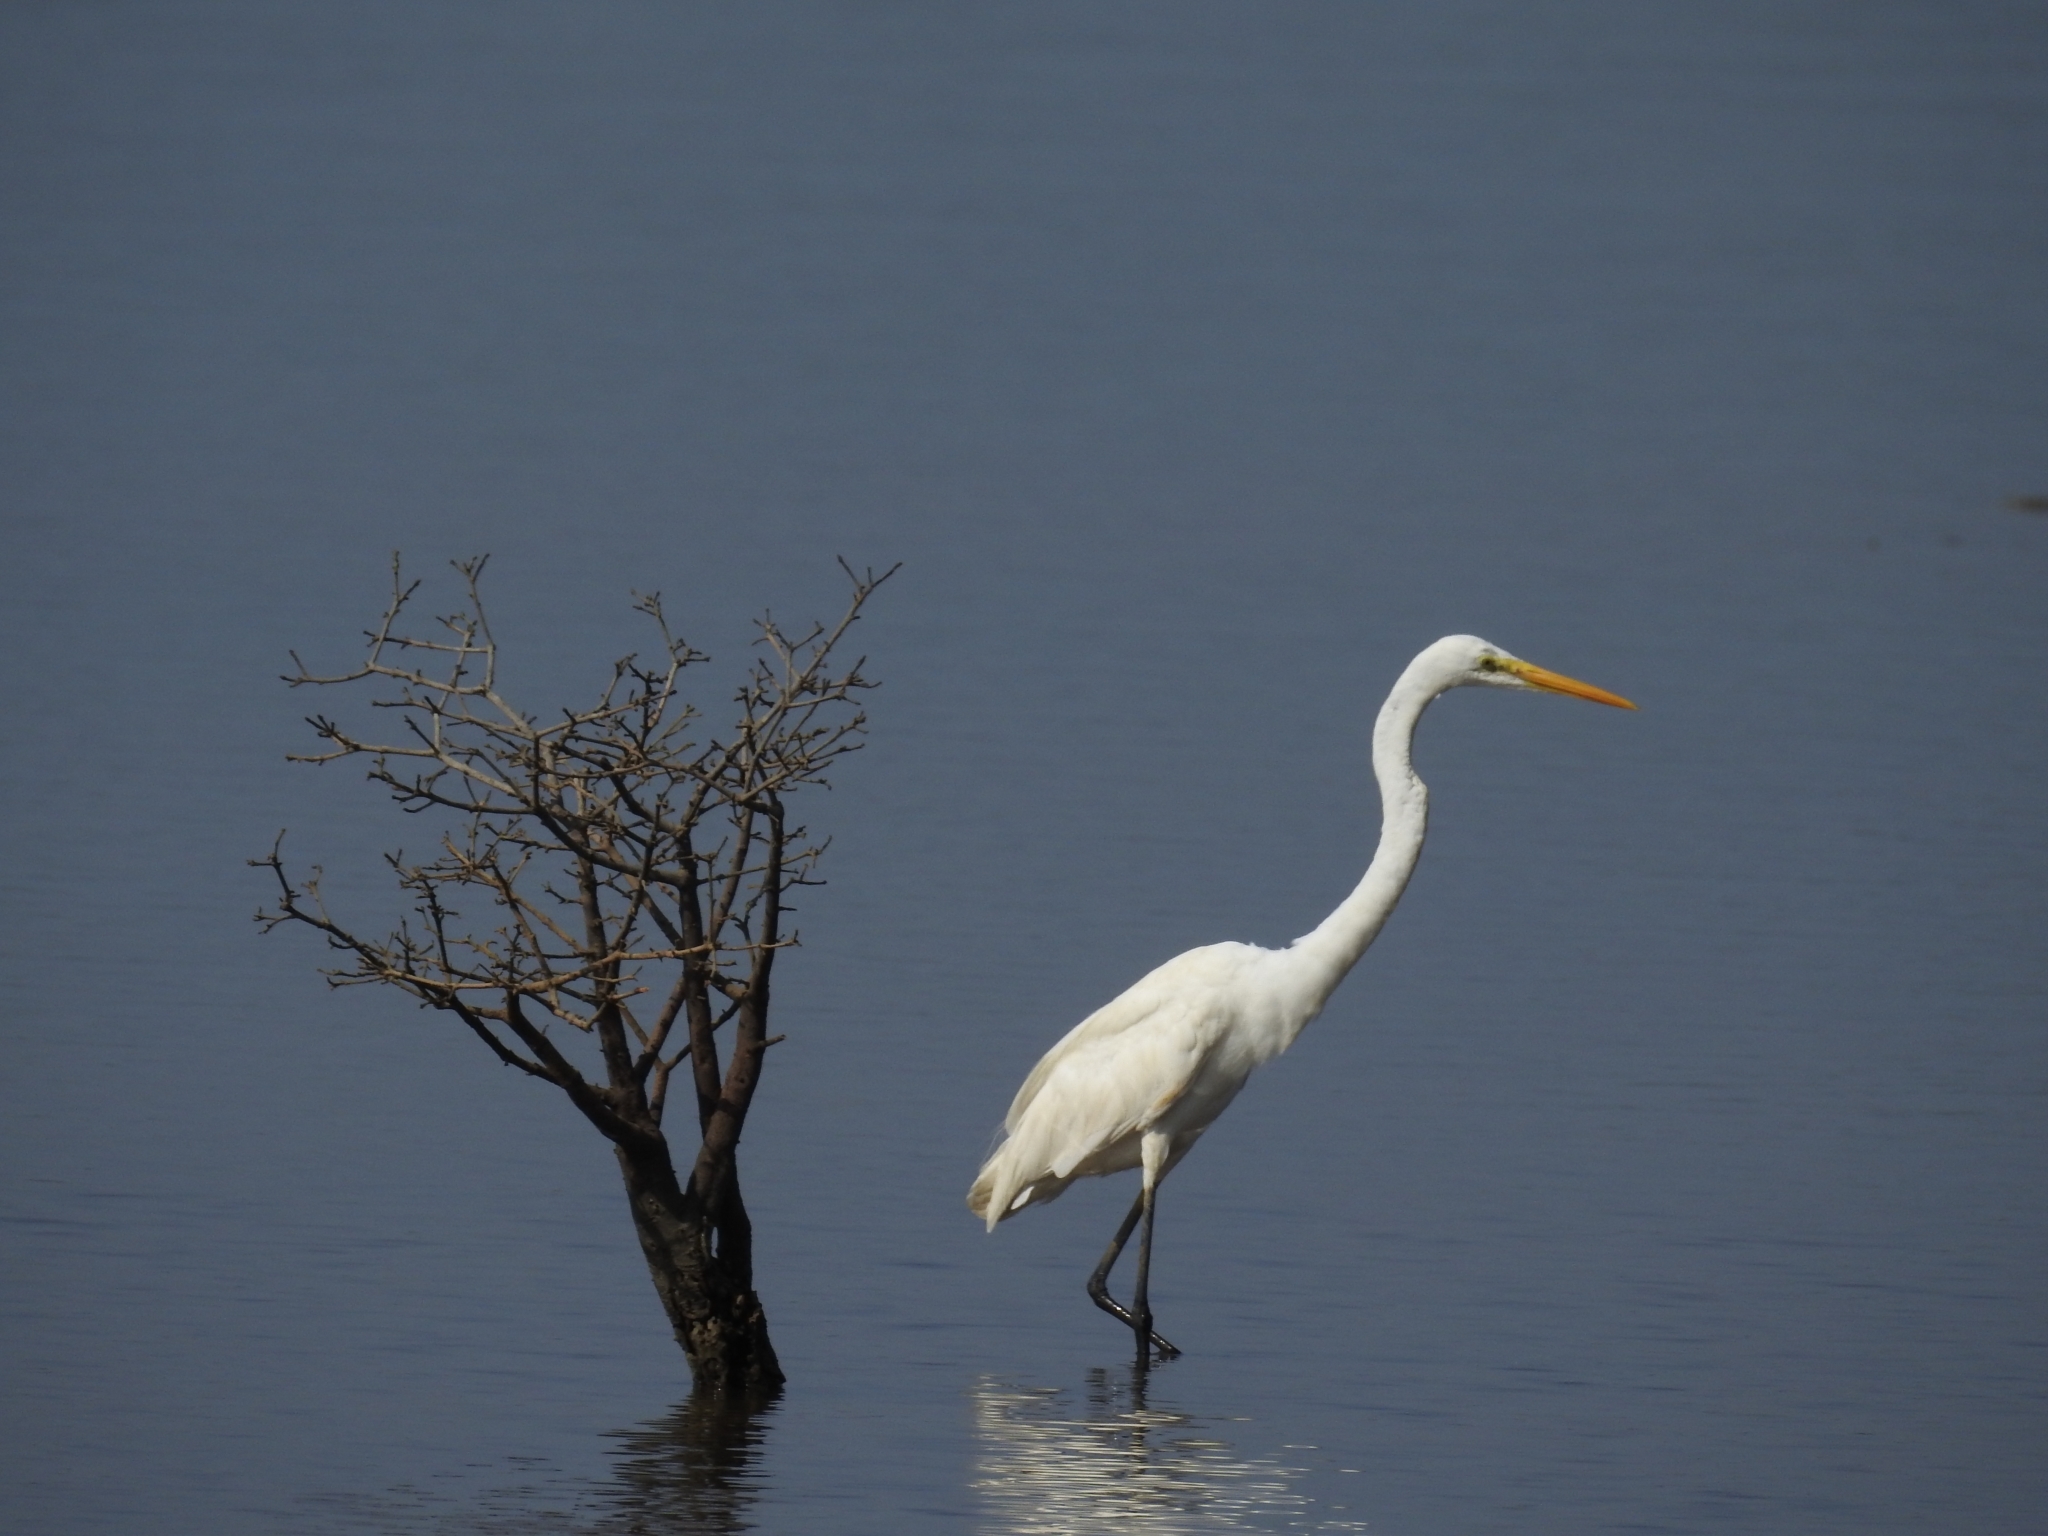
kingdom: Animalia
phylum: Chordata
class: Aves
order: Pelecaniformes
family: Ardeidae
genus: Ardea
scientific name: Ardea alba
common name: Great egret
